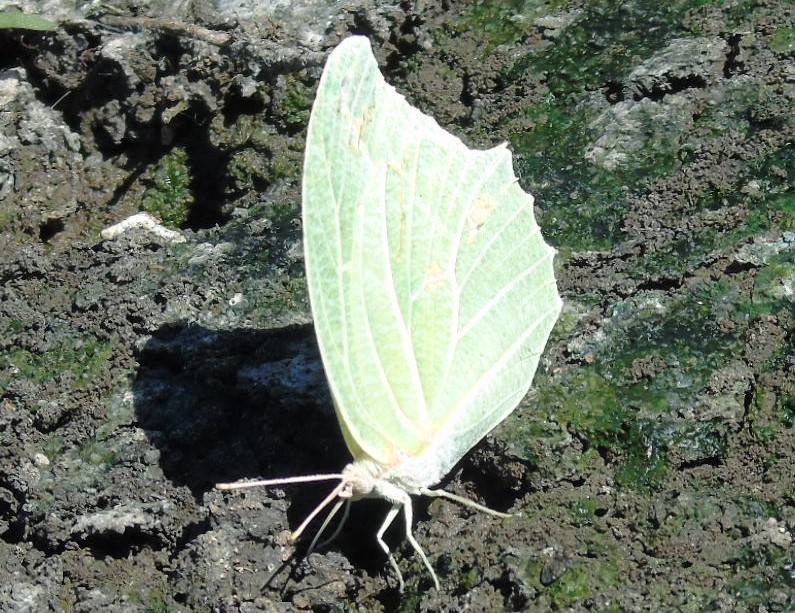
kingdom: Animalia
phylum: Arthropoda
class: Insecta
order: Lepidoptera
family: Pieridae
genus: Anteos
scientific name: Anteos clorinde
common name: White angled sulphur
